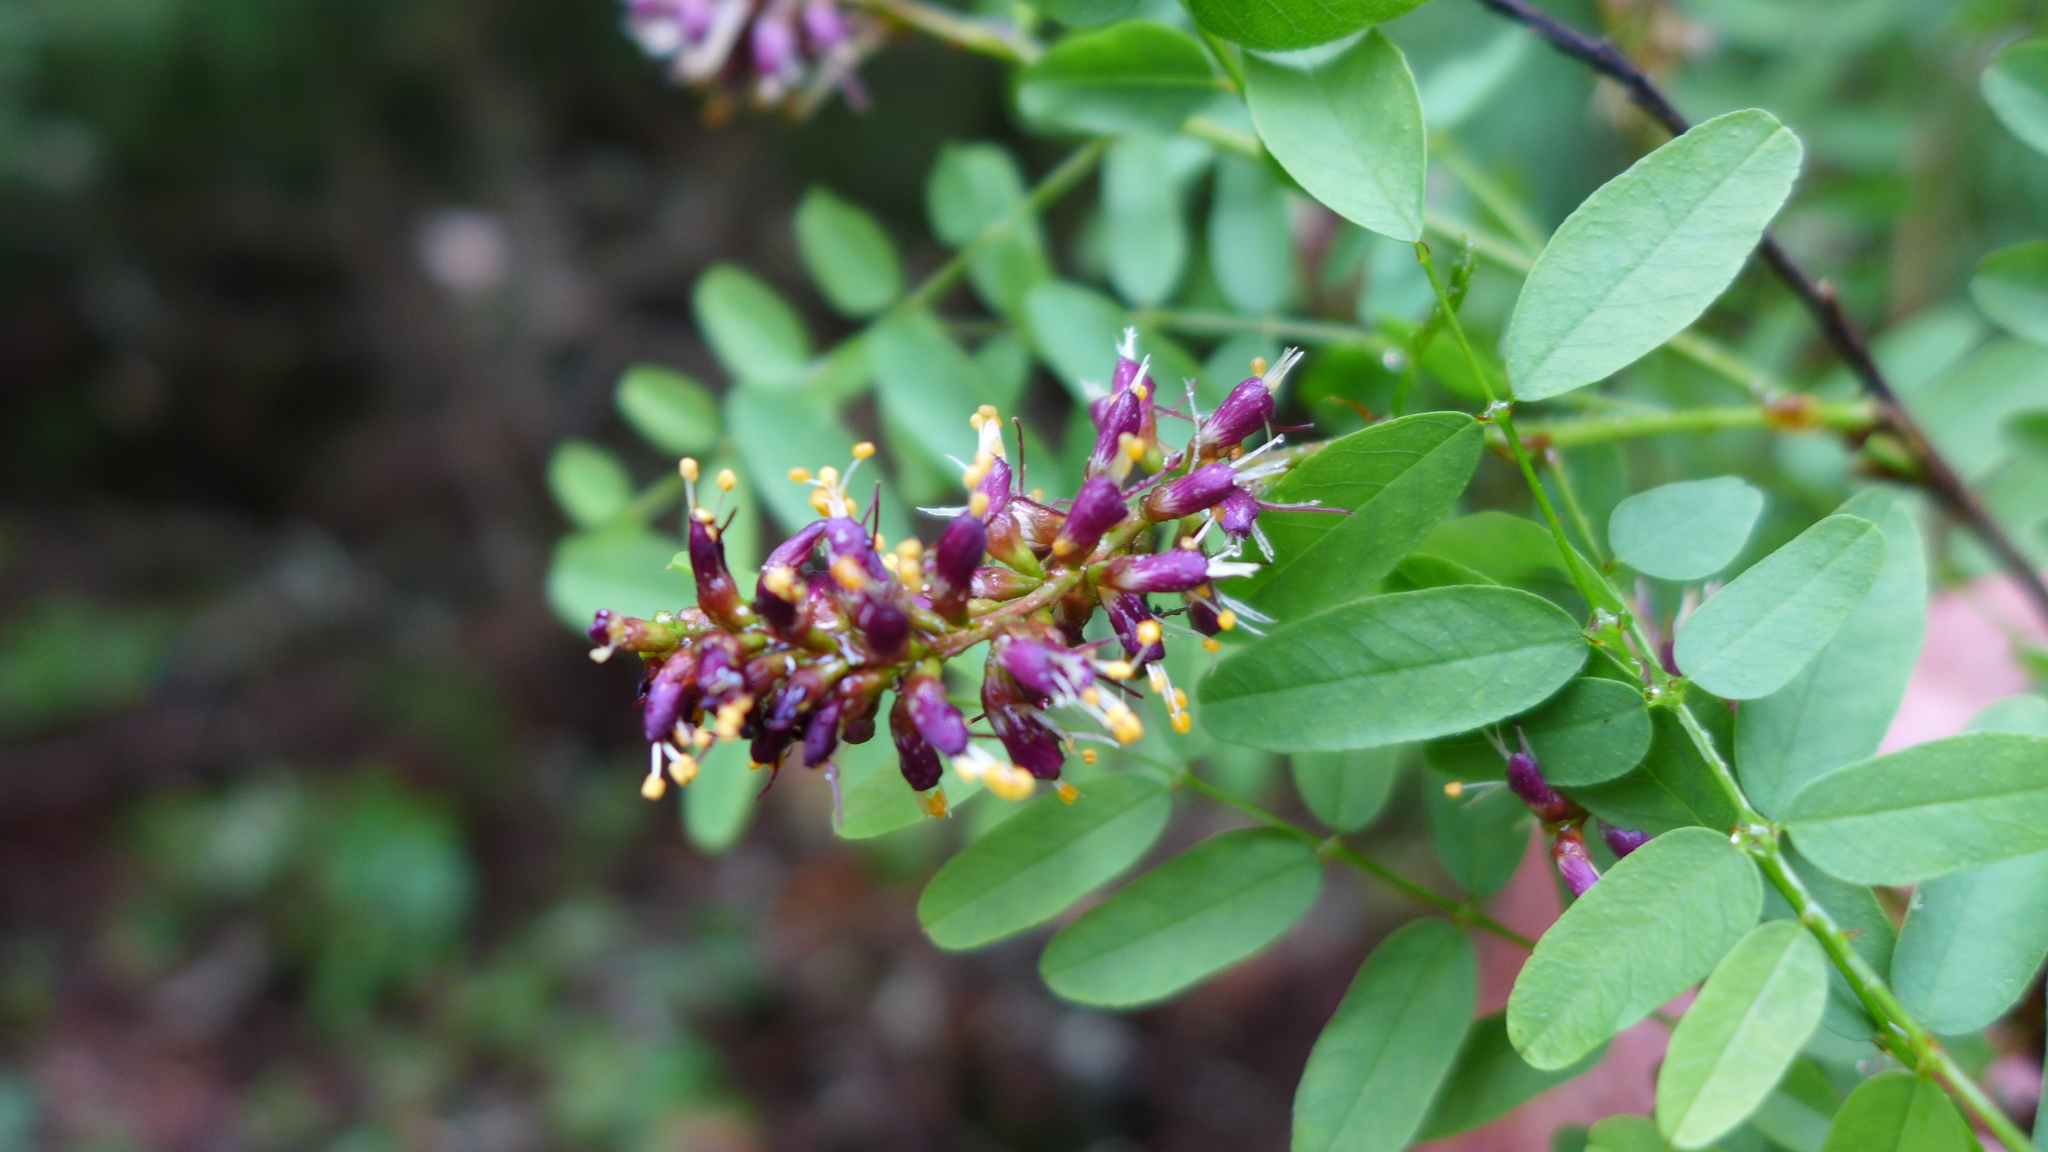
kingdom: Plantae
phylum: Tracheophyta
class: Magnoliopsida
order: Fabales
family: Fabaceae
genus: Amorpha
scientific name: Amorpha californica
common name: California indigobush
